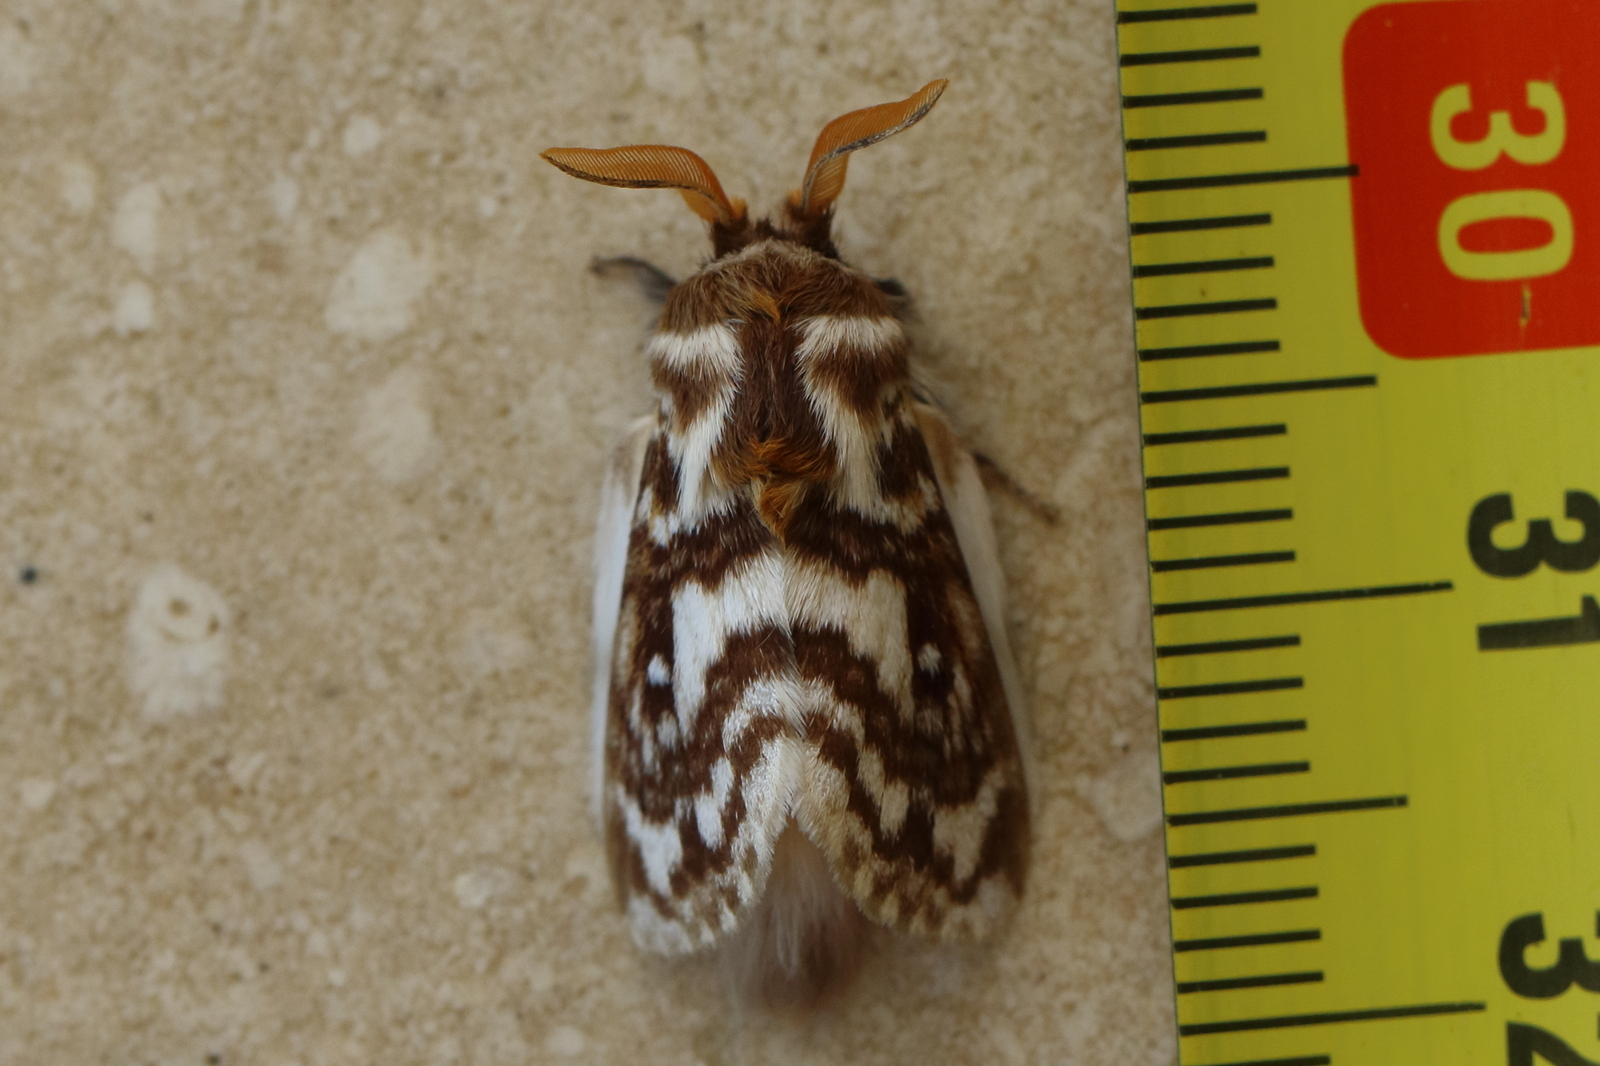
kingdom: Animalia
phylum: Arthropoda
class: Insecta
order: Lepidoptera
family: Lasiocampidae
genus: Pernattia
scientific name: Pernattia brevipennis
